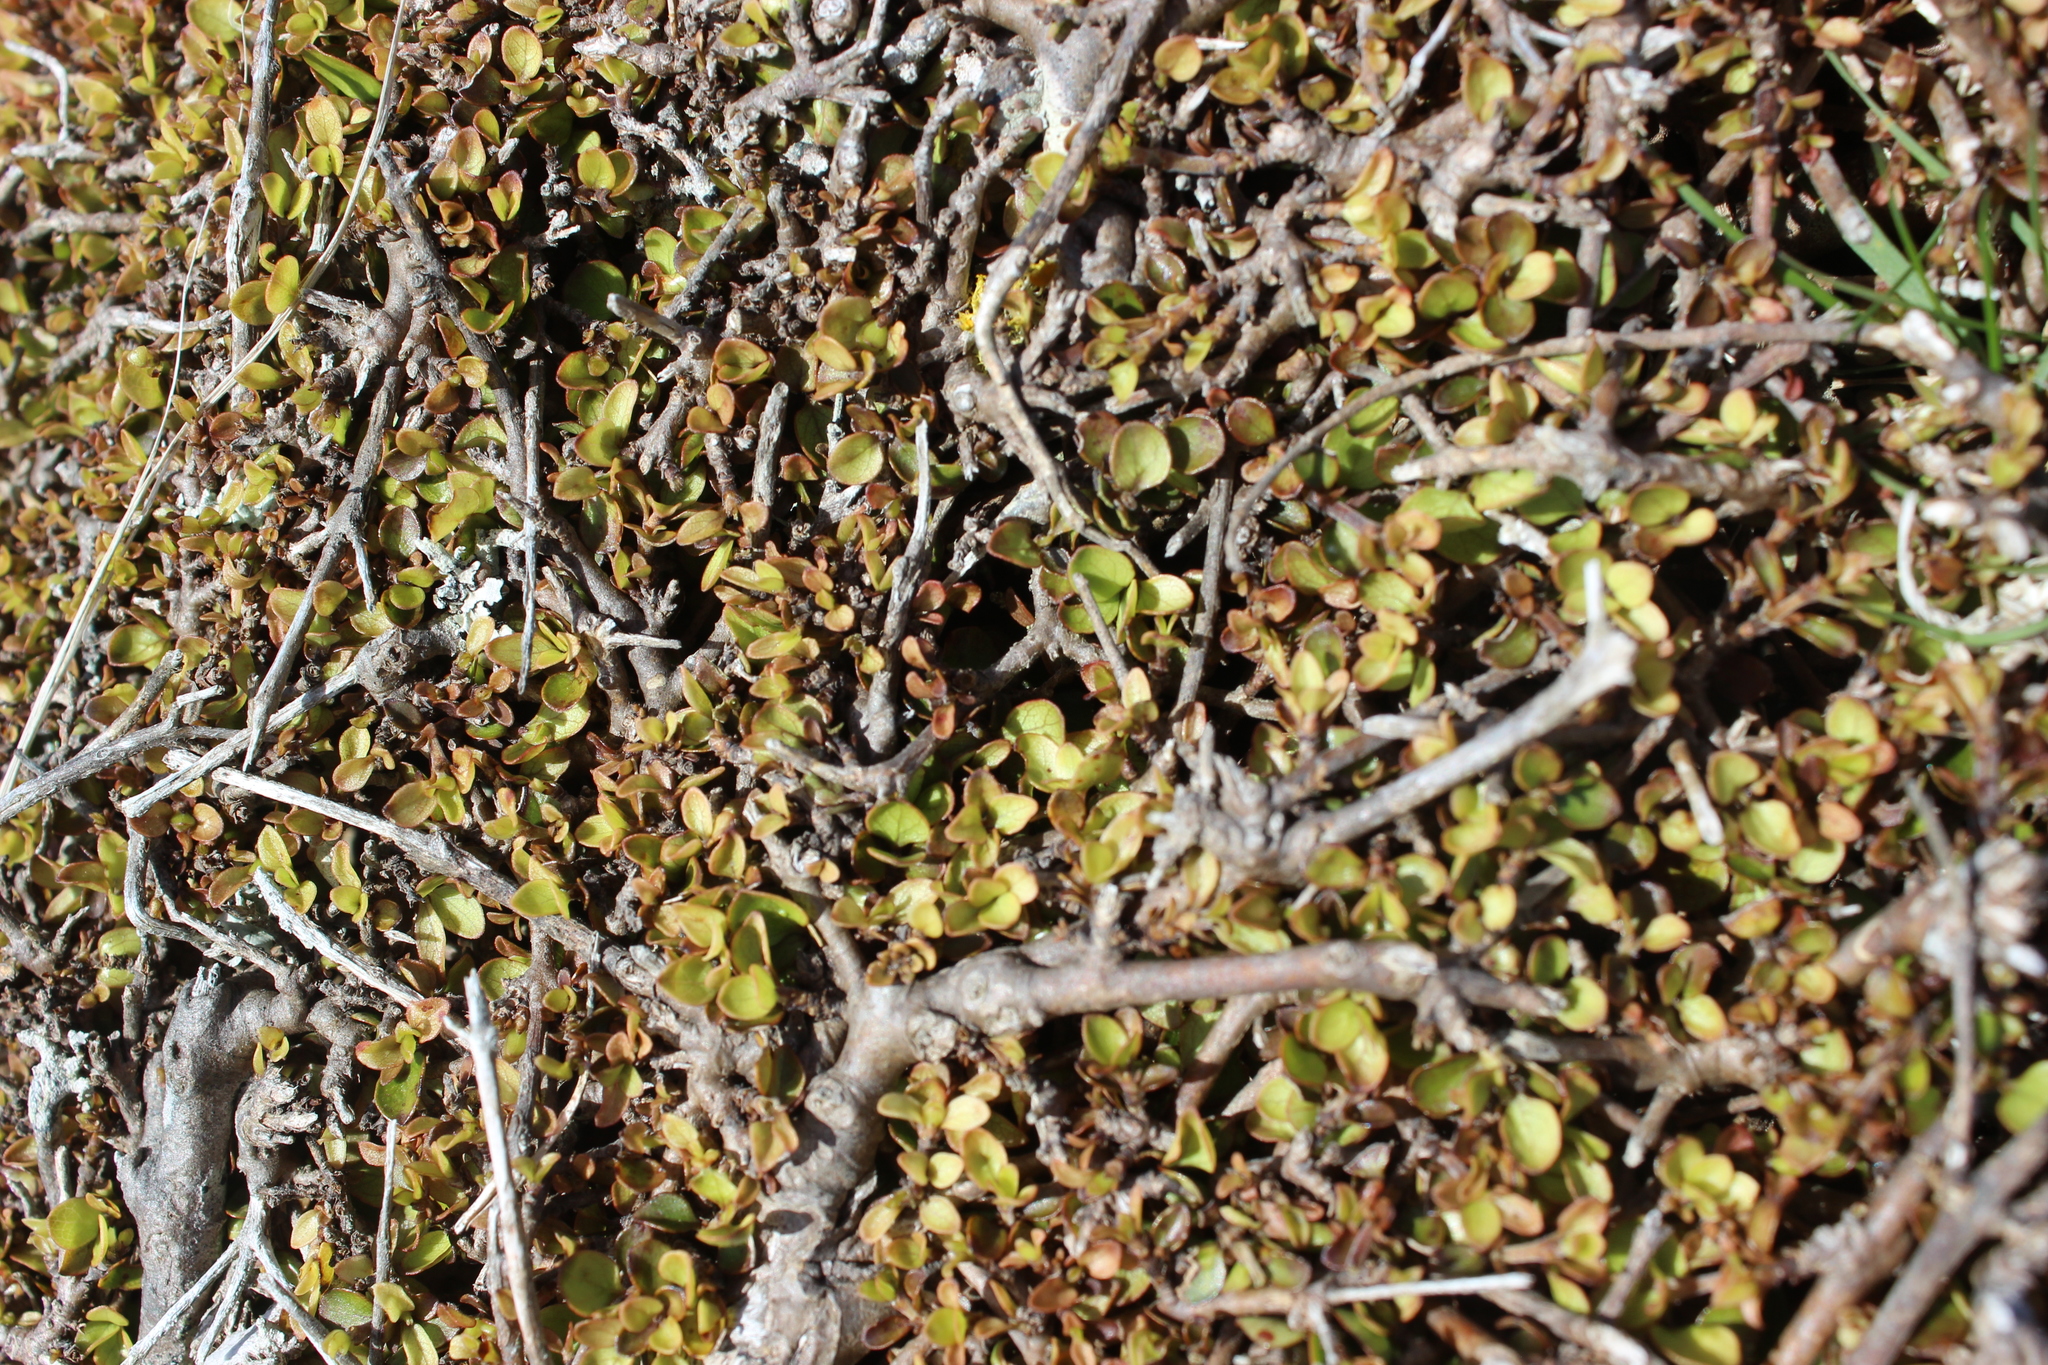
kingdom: Plantae
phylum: Tracheophyta
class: Magnoliopsida
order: Gentianales
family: Rubiaceae
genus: Coprosma
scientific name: Coprosma rhamnoides
